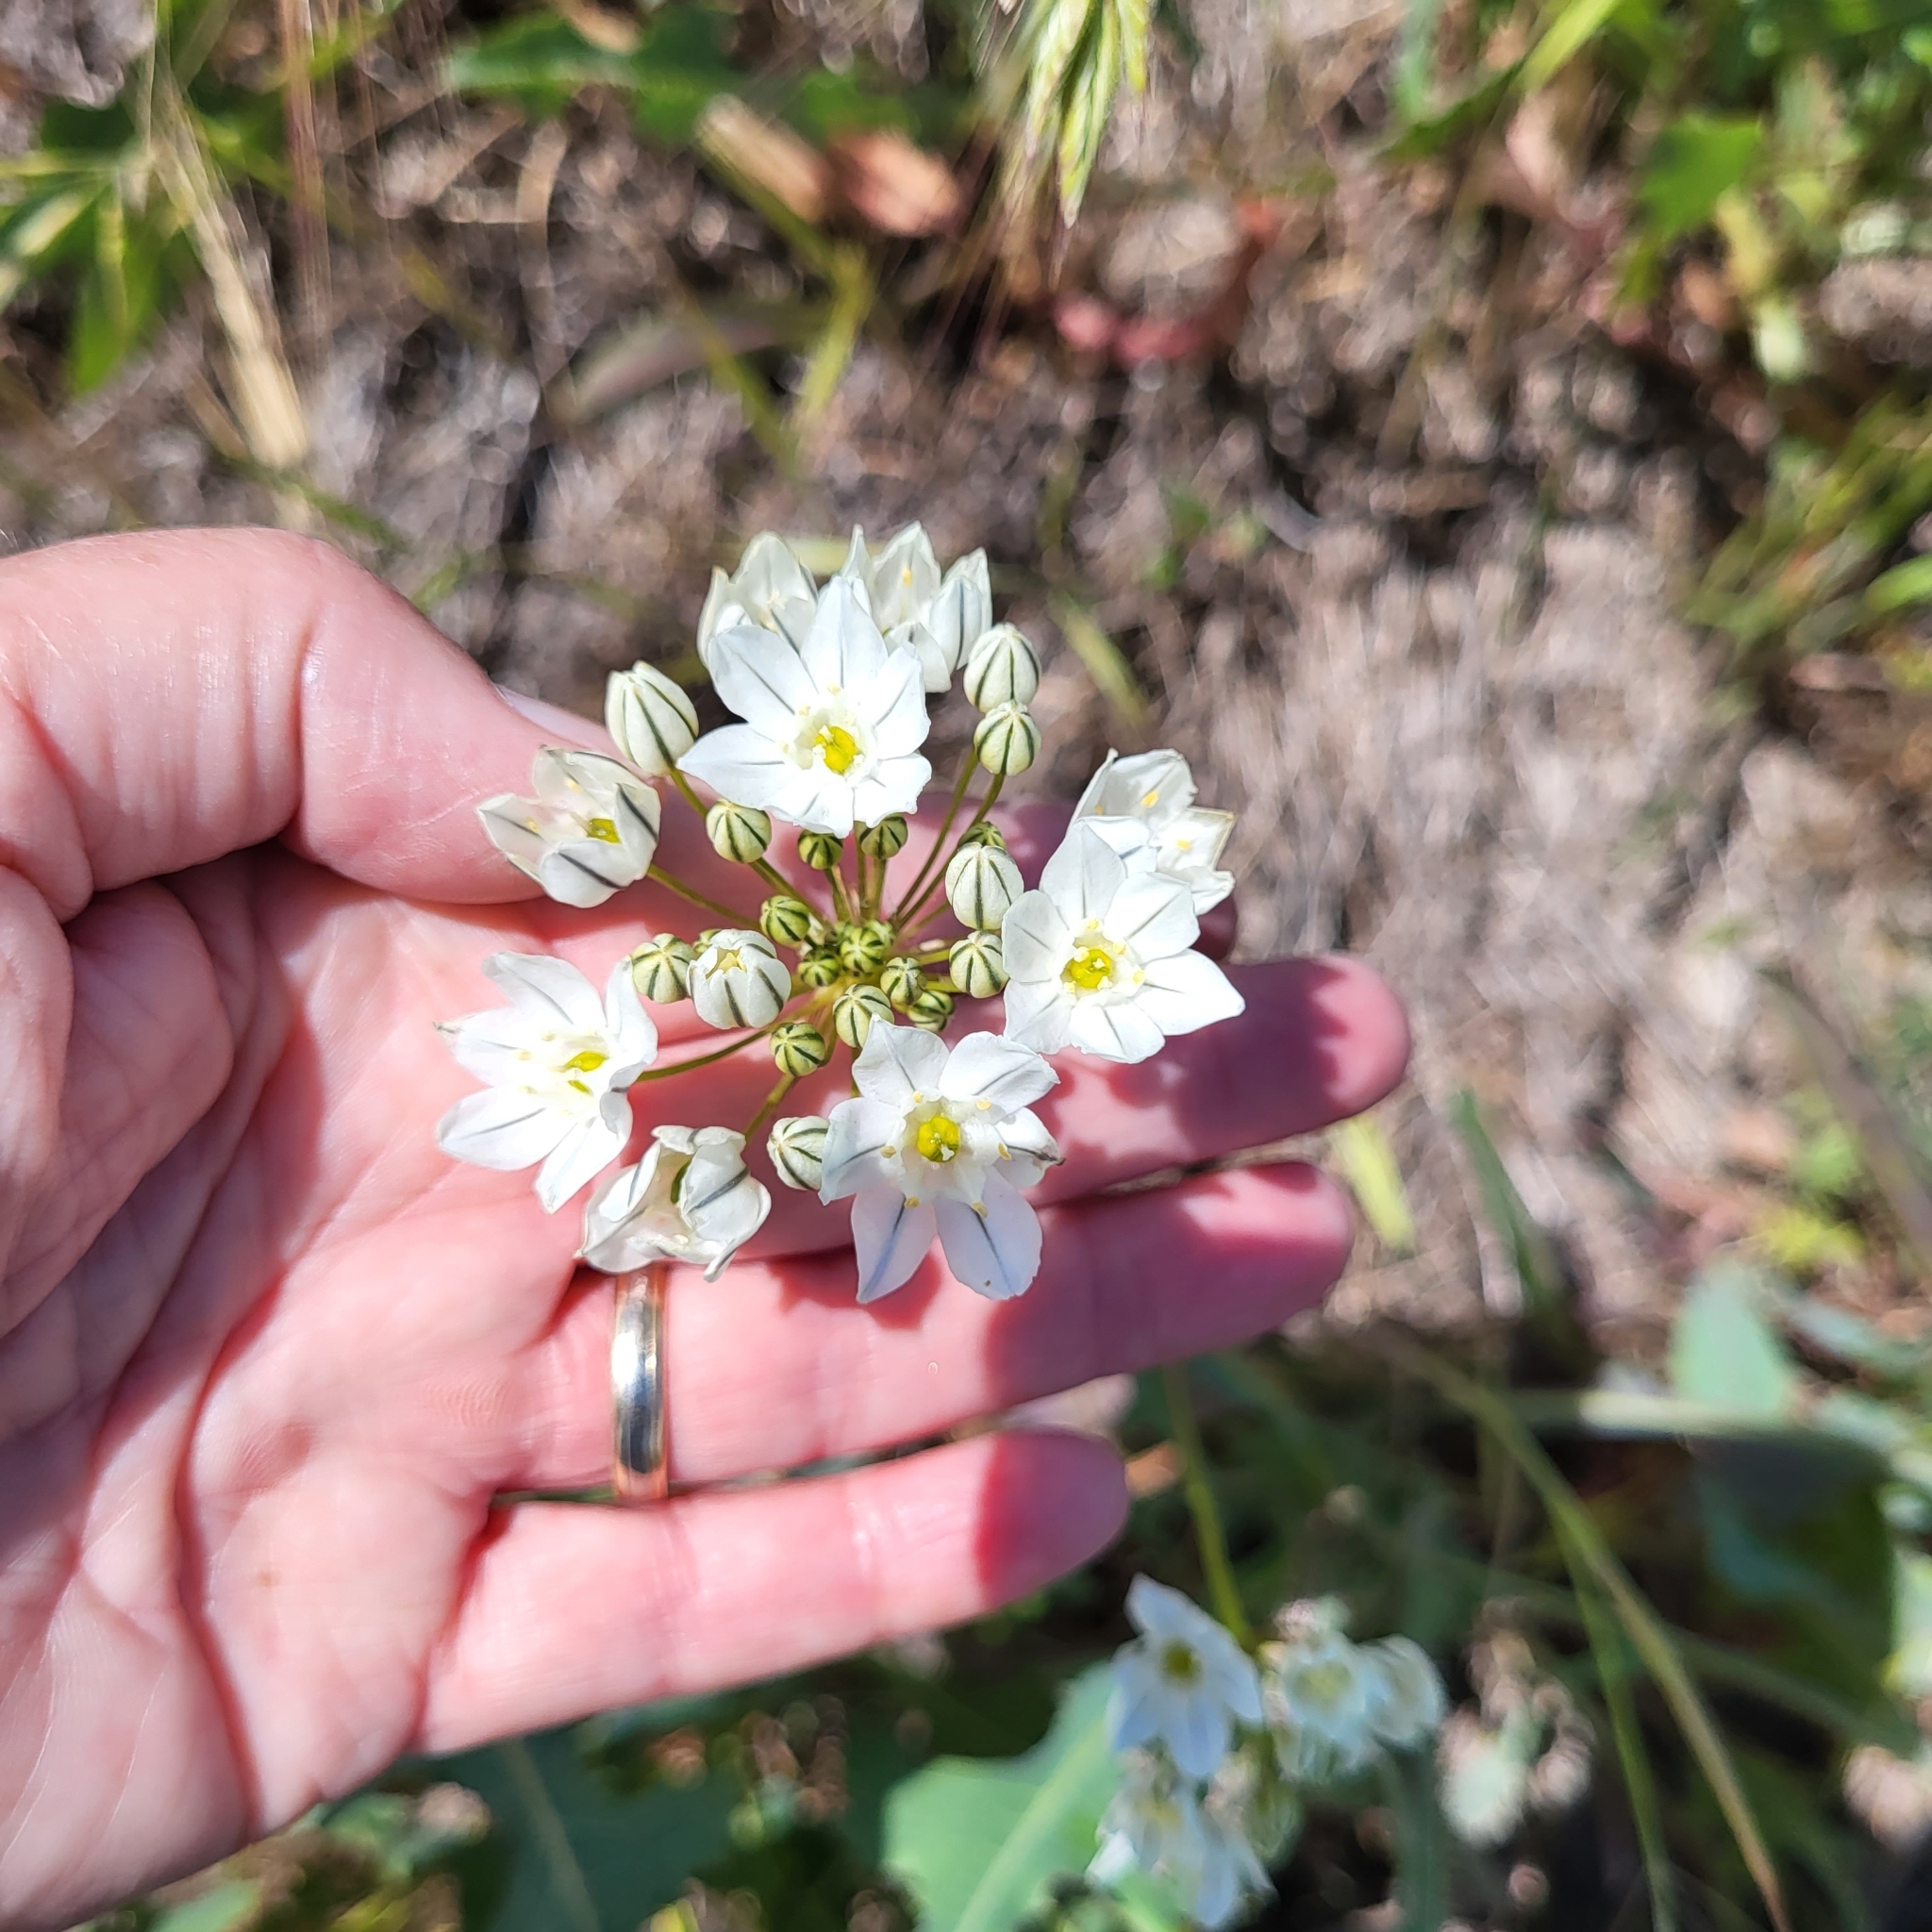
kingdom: Plantae
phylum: Tracheophyta
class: Liliopsida
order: Asparagales
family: Asparagaceae
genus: Triteleia
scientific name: Triteleia hyacinthina
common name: White brodiaea
